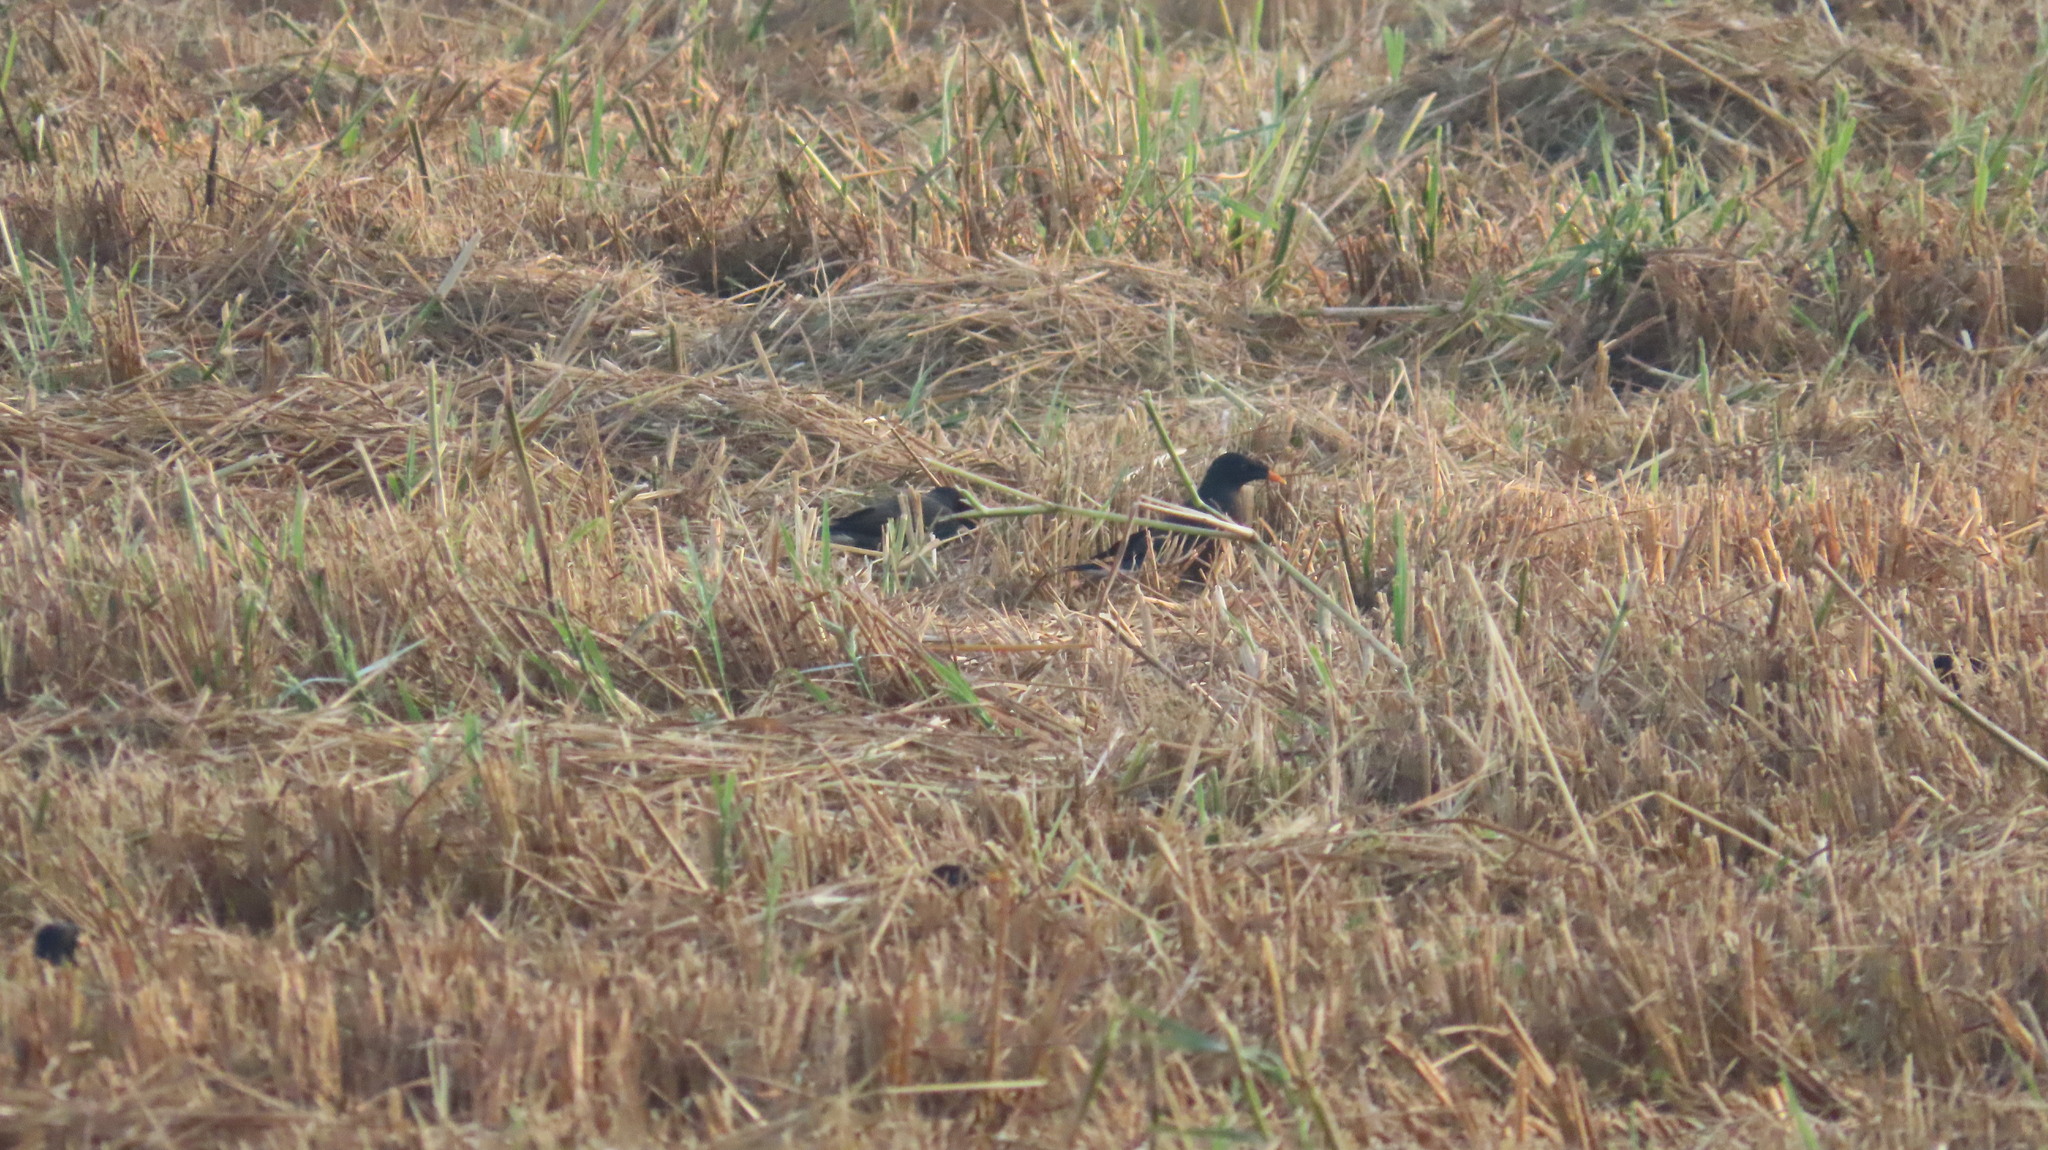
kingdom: Animalia
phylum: Chordata
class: Aves
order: Passeriformes
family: Sturnidae
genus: Acridotheres
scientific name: Acridotheres fuscus
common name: Jungle myna
